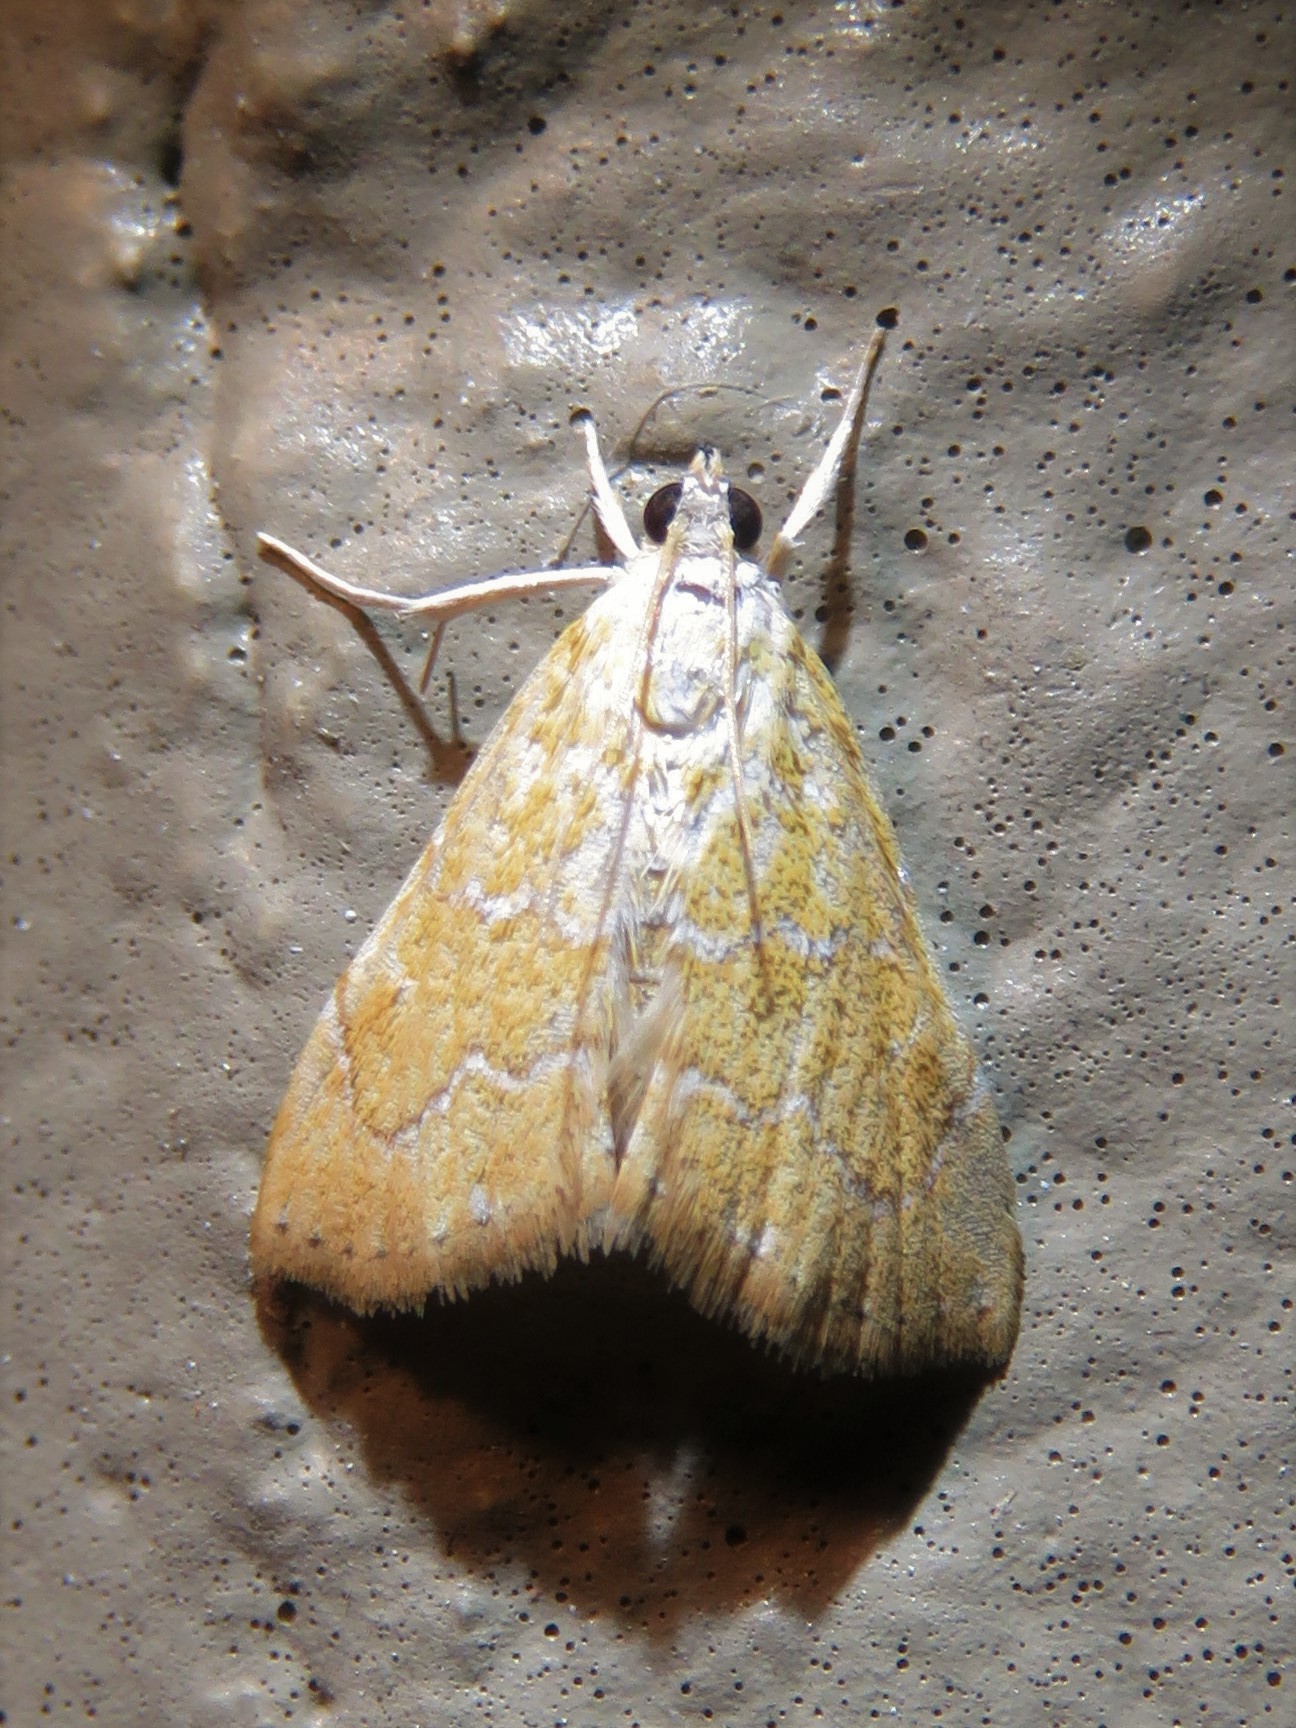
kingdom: Animalia
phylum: Arthropoda
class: Insecta
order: Lepidoptera
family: Crambidae
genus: Glaphyria
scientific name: Glaphyria sesquistrialis
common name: White-roped glaphyria
